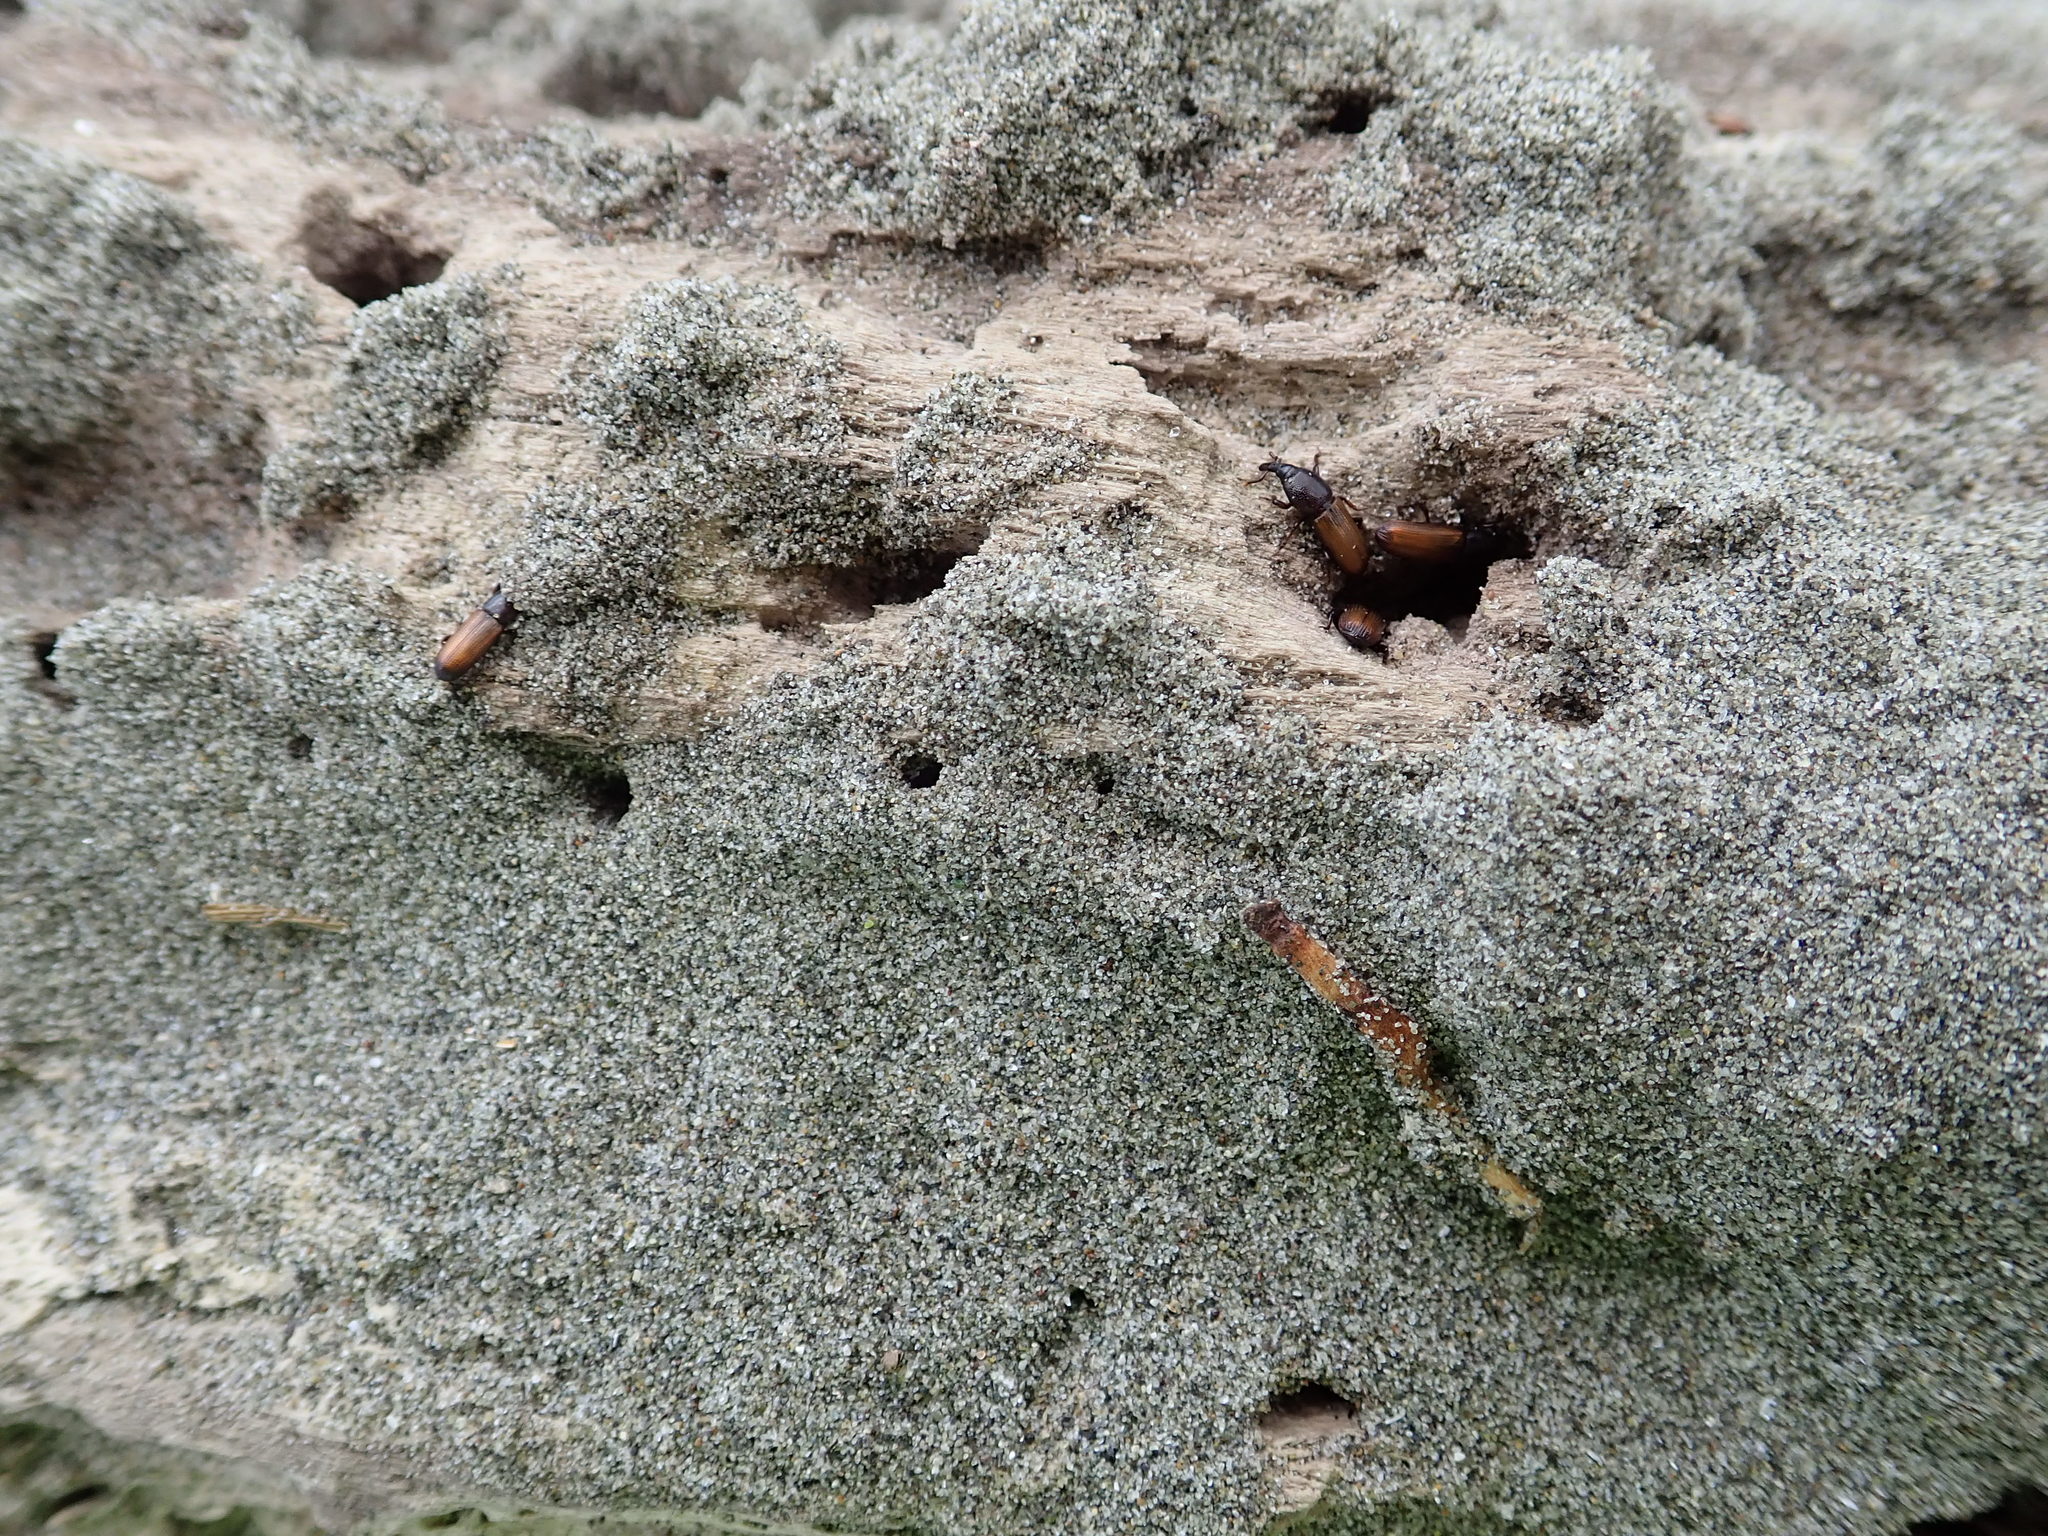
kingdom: Animalia
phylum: Arthropoda
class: Insecta
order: Coleoptera
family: Curculionidae
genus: Mesites
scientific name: Mesites pallidipennis
